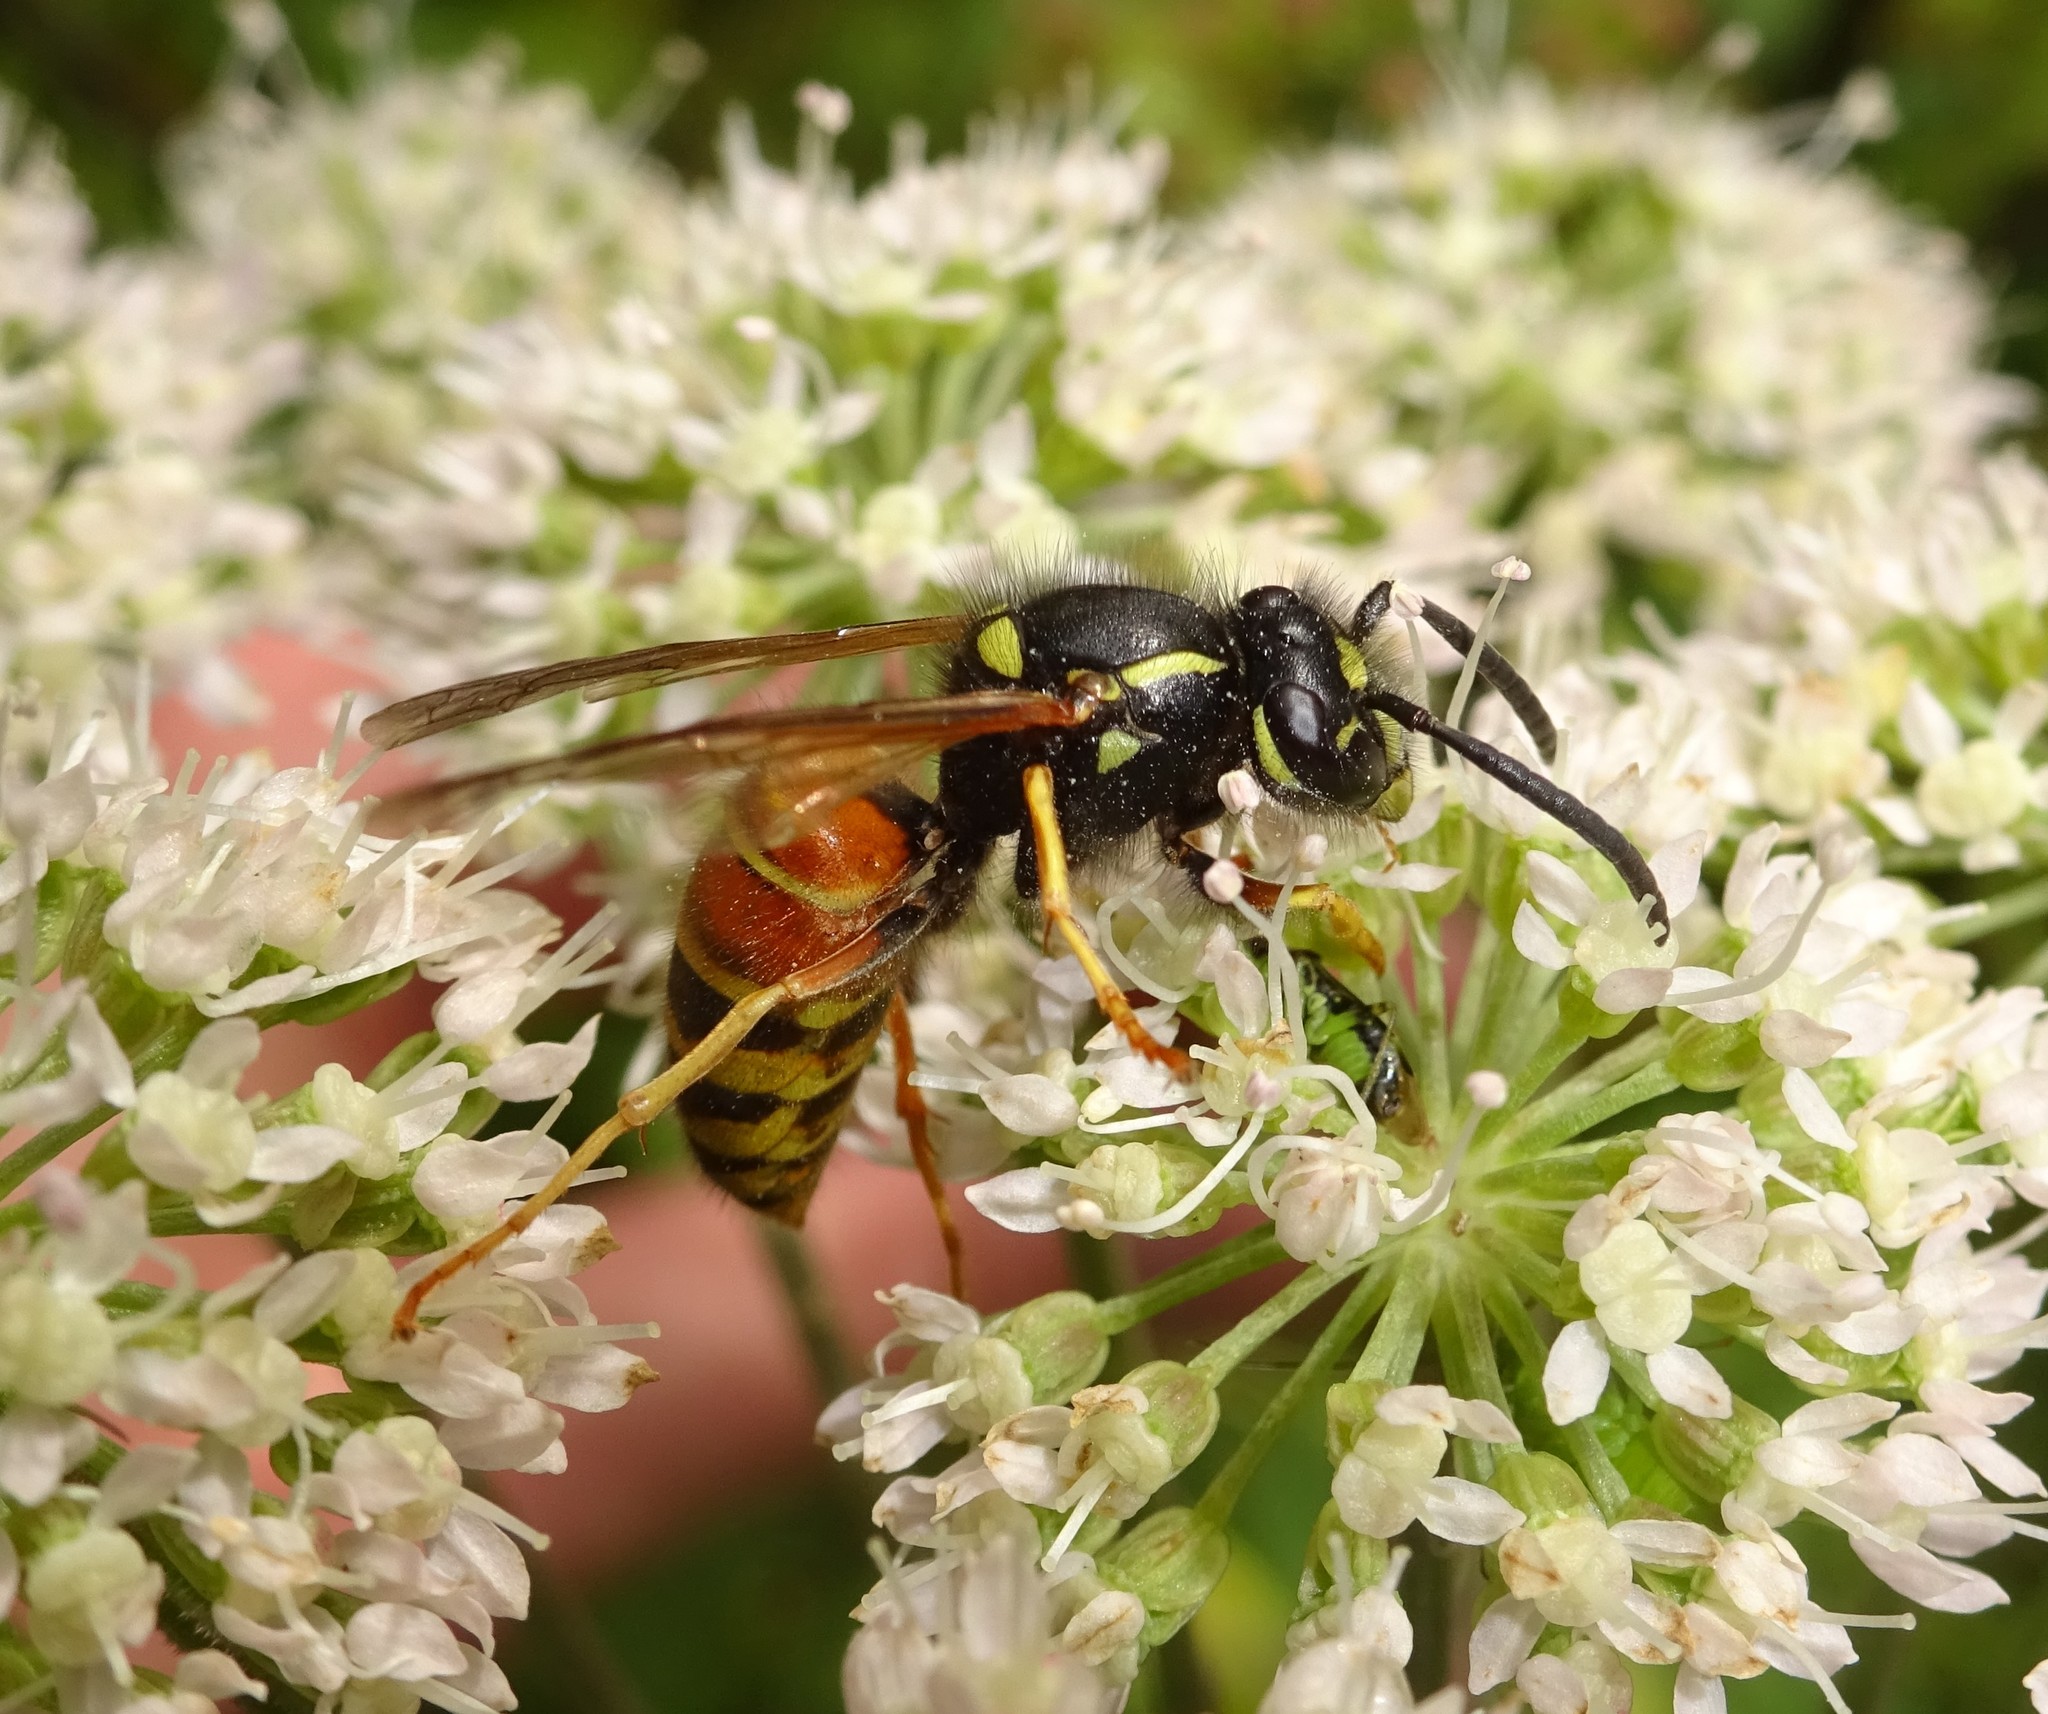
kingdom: Animalia
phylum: Arthropoda
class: Insecta
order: Hymenoptera
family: Vespidae
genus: Vespula
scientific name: Vespula rufa
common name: Red wasp
